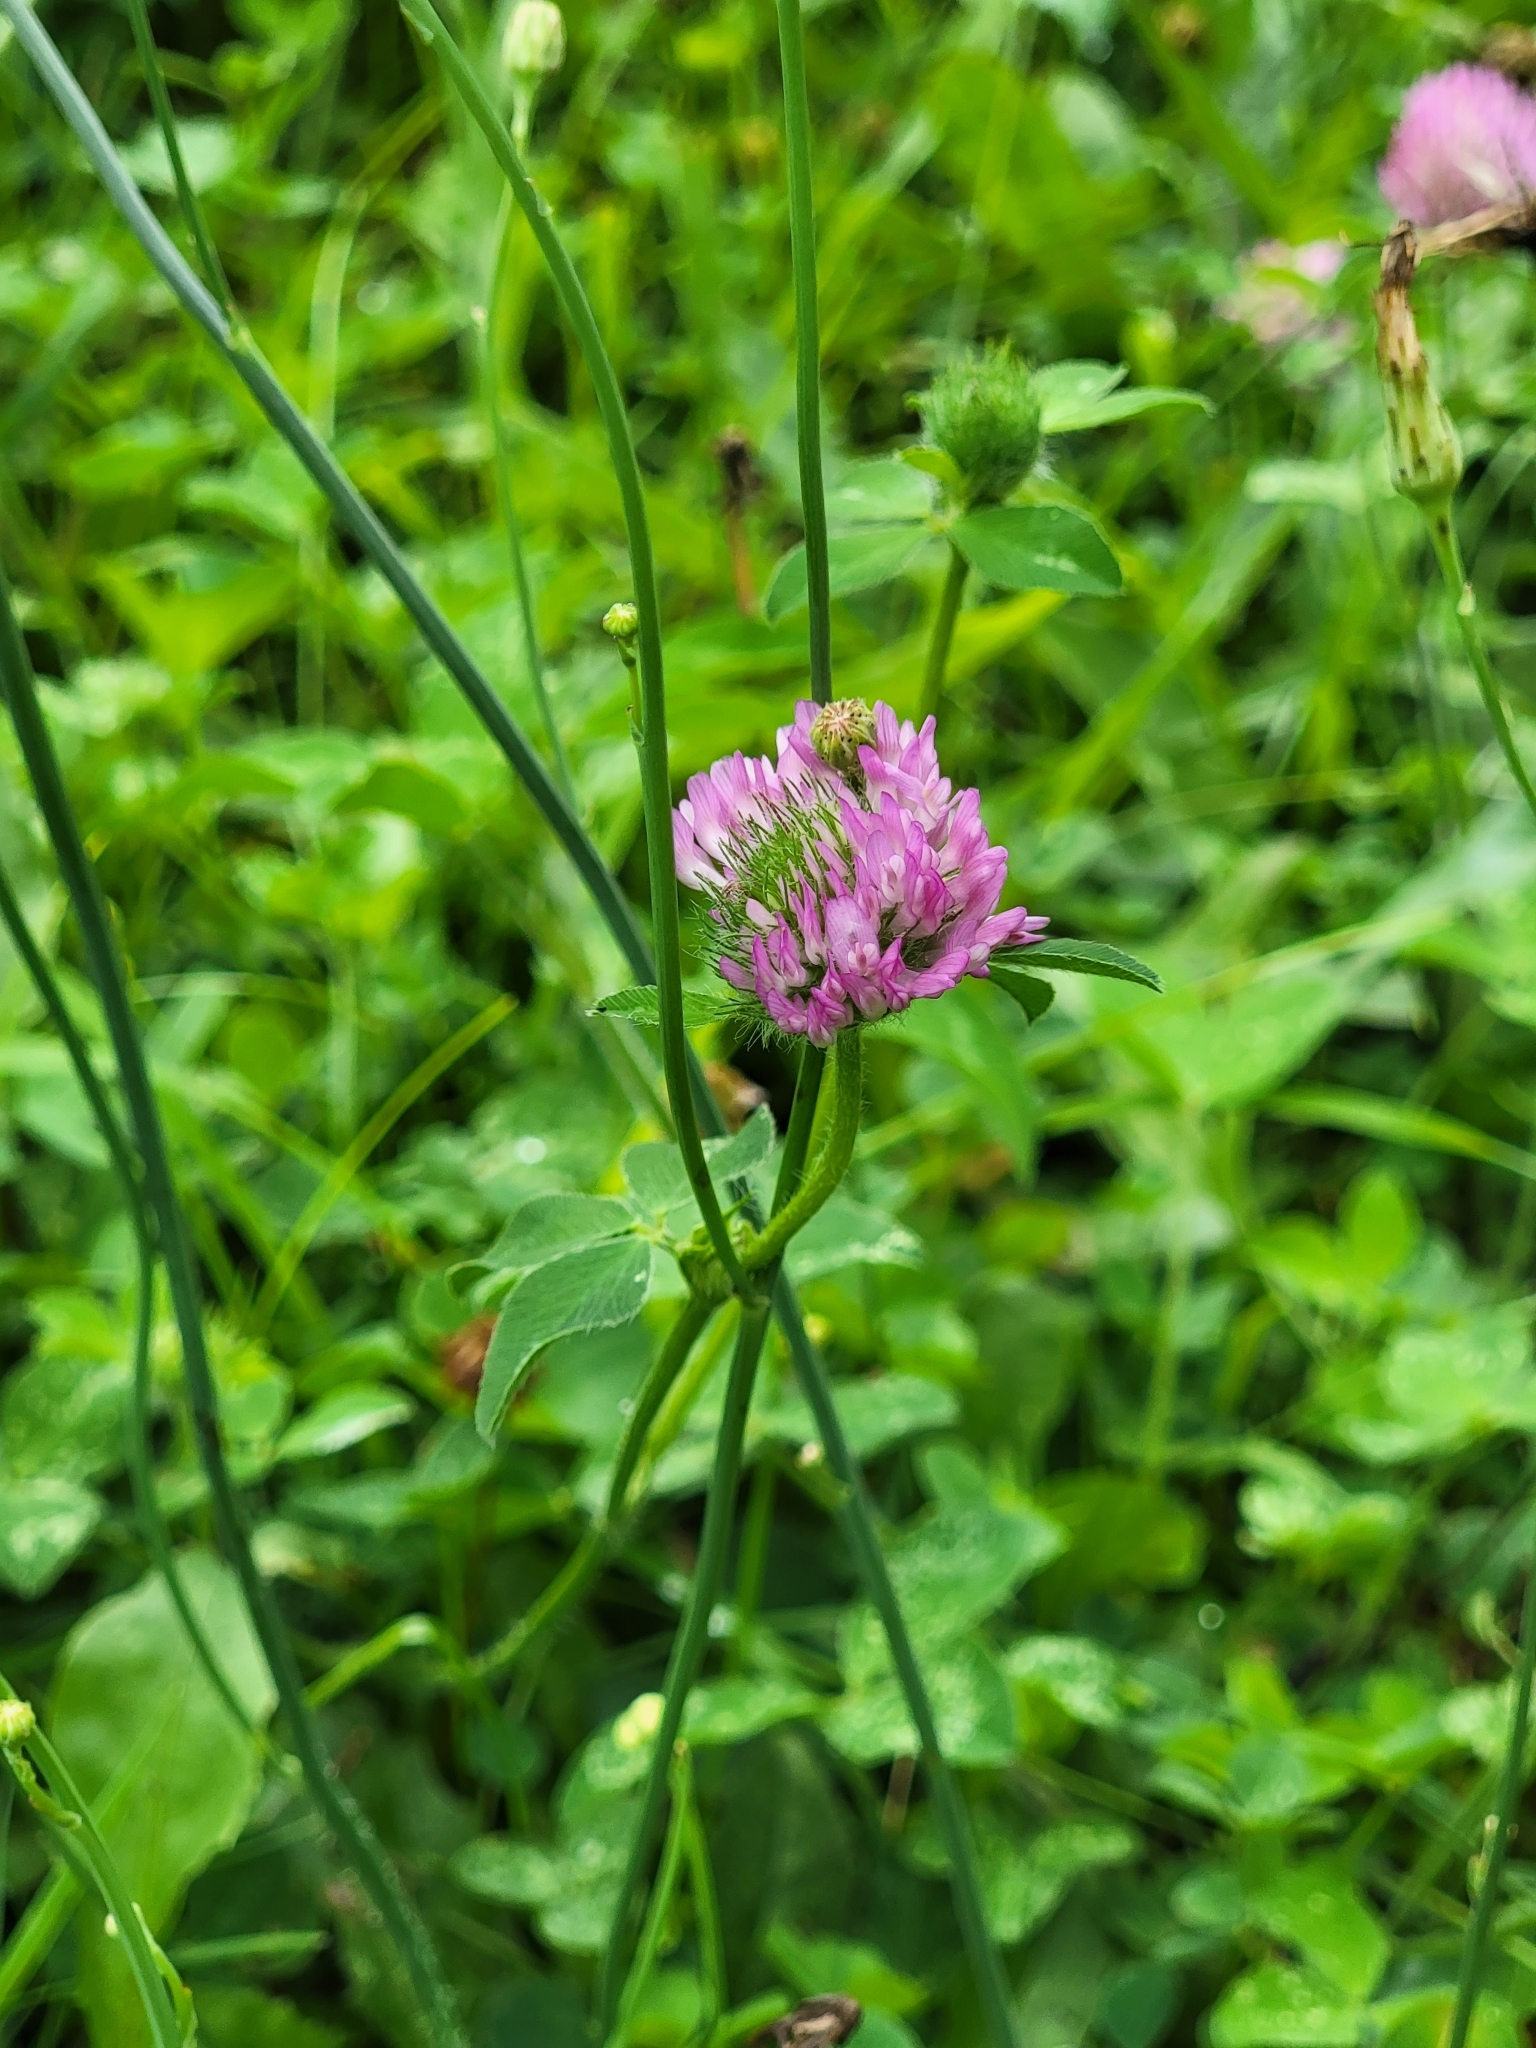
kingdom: Plantae
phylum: Tracheophyta
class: Magnoliopsida
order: Fabales
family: Fabaceae
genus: Trifolium
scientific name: Trifolium pratense
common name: Red clover
